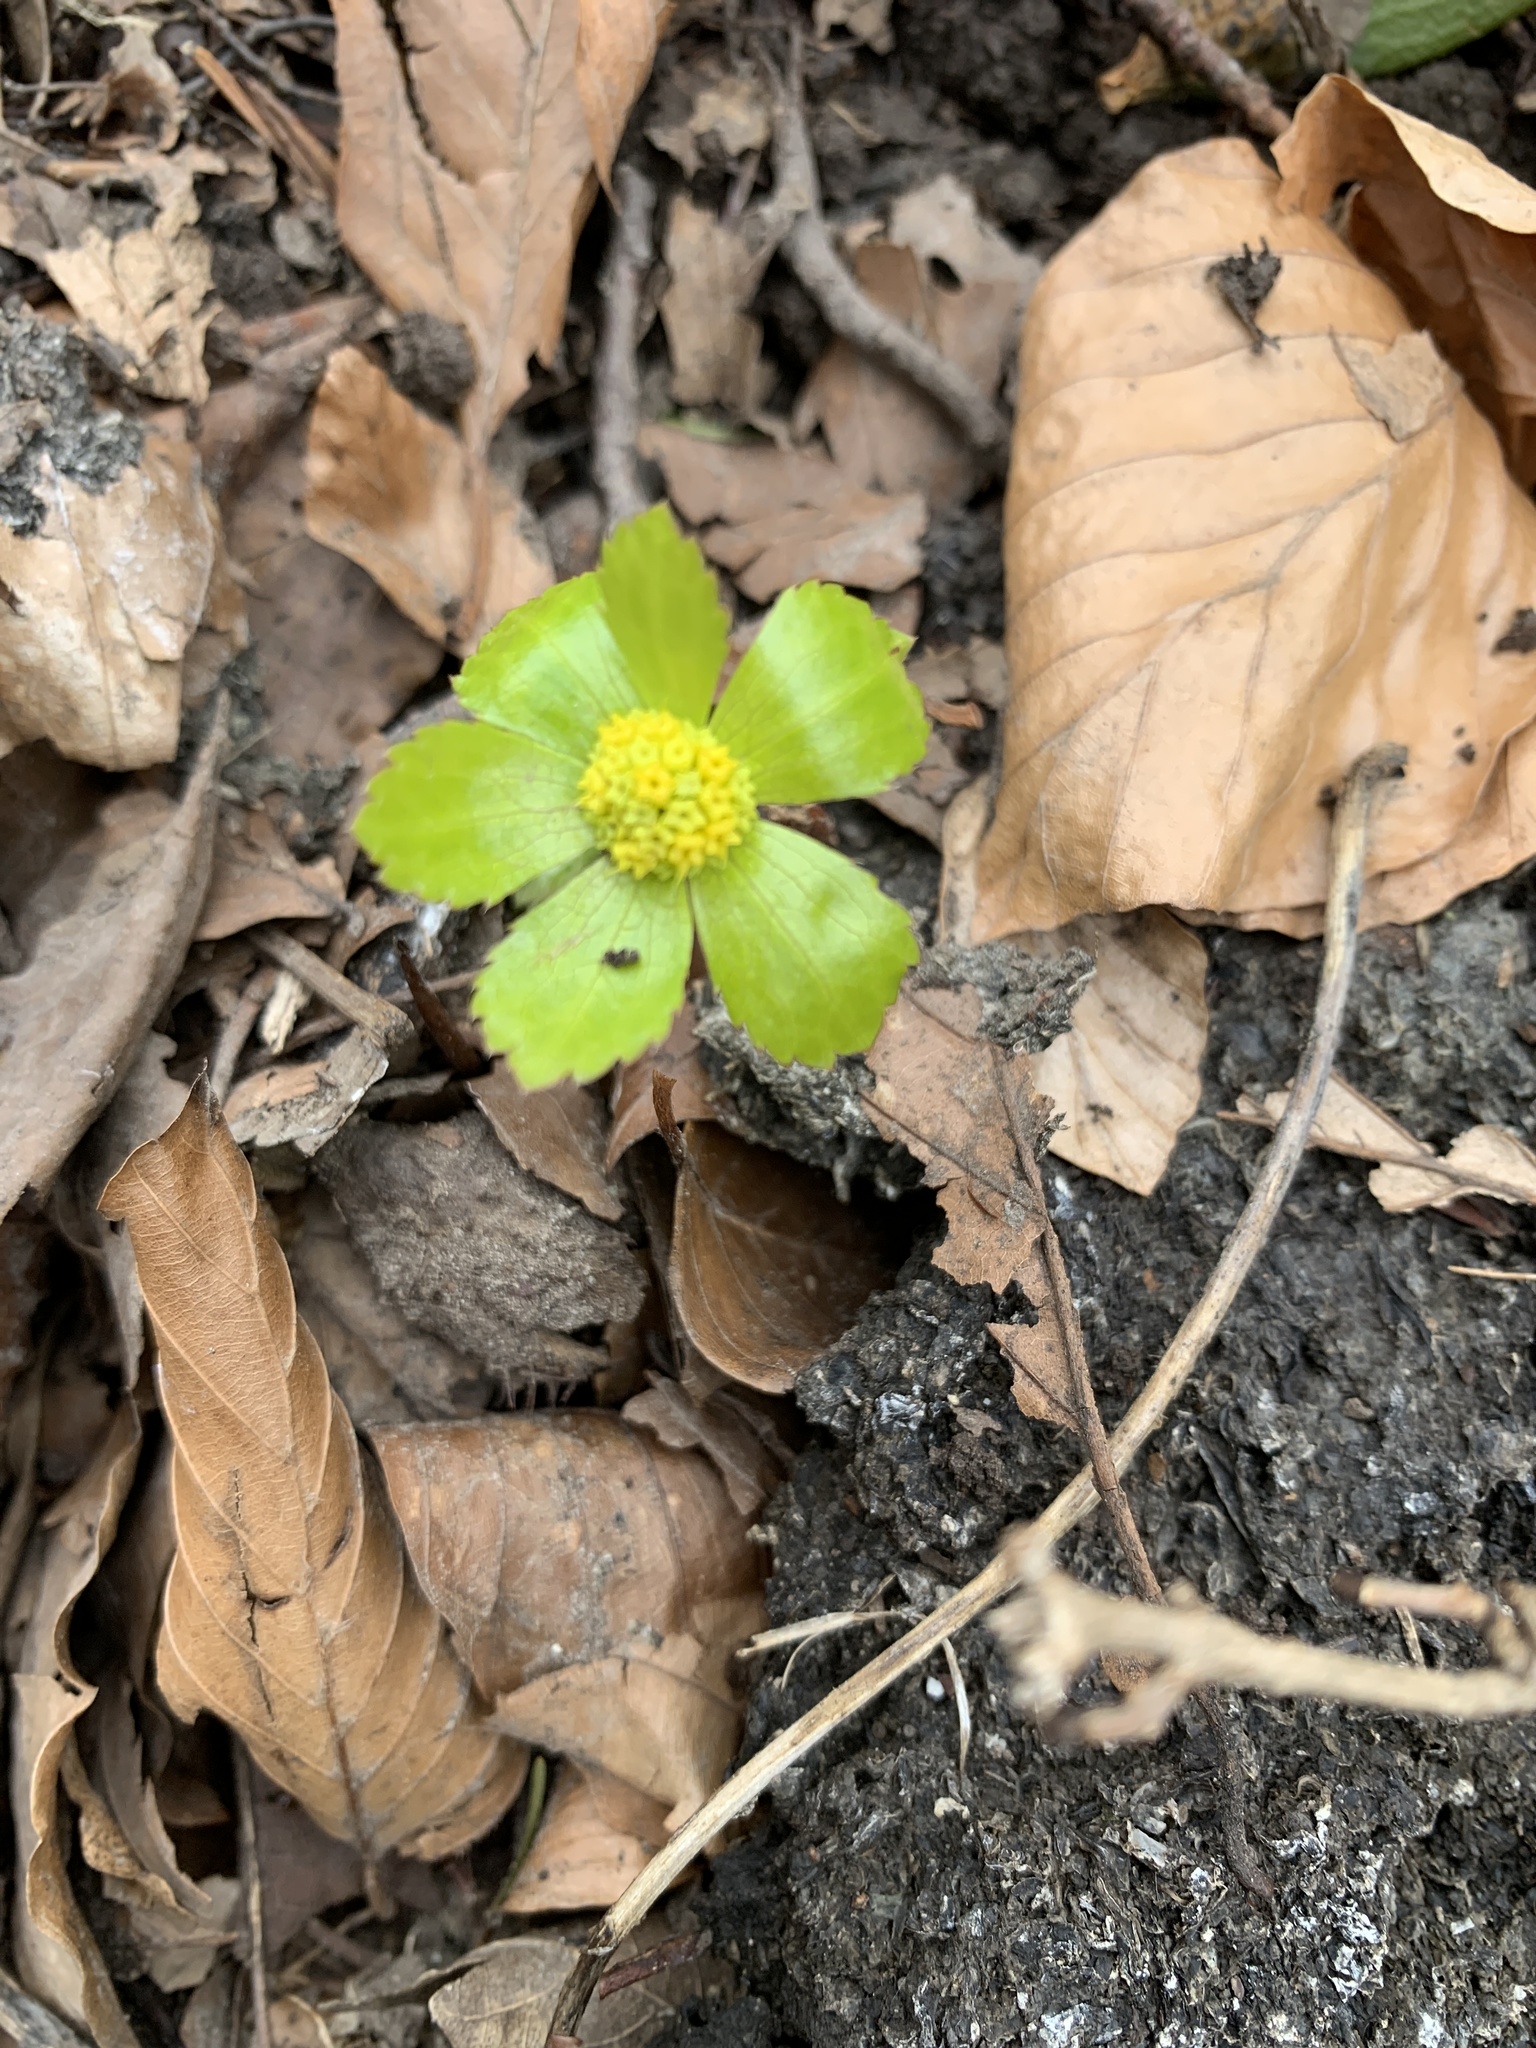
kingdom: Plantae
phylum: Tracheophyta
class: Magnoliopsida
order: Apiales
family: Apiaceae
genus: Sanicula
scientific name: Sanicula epipactis
